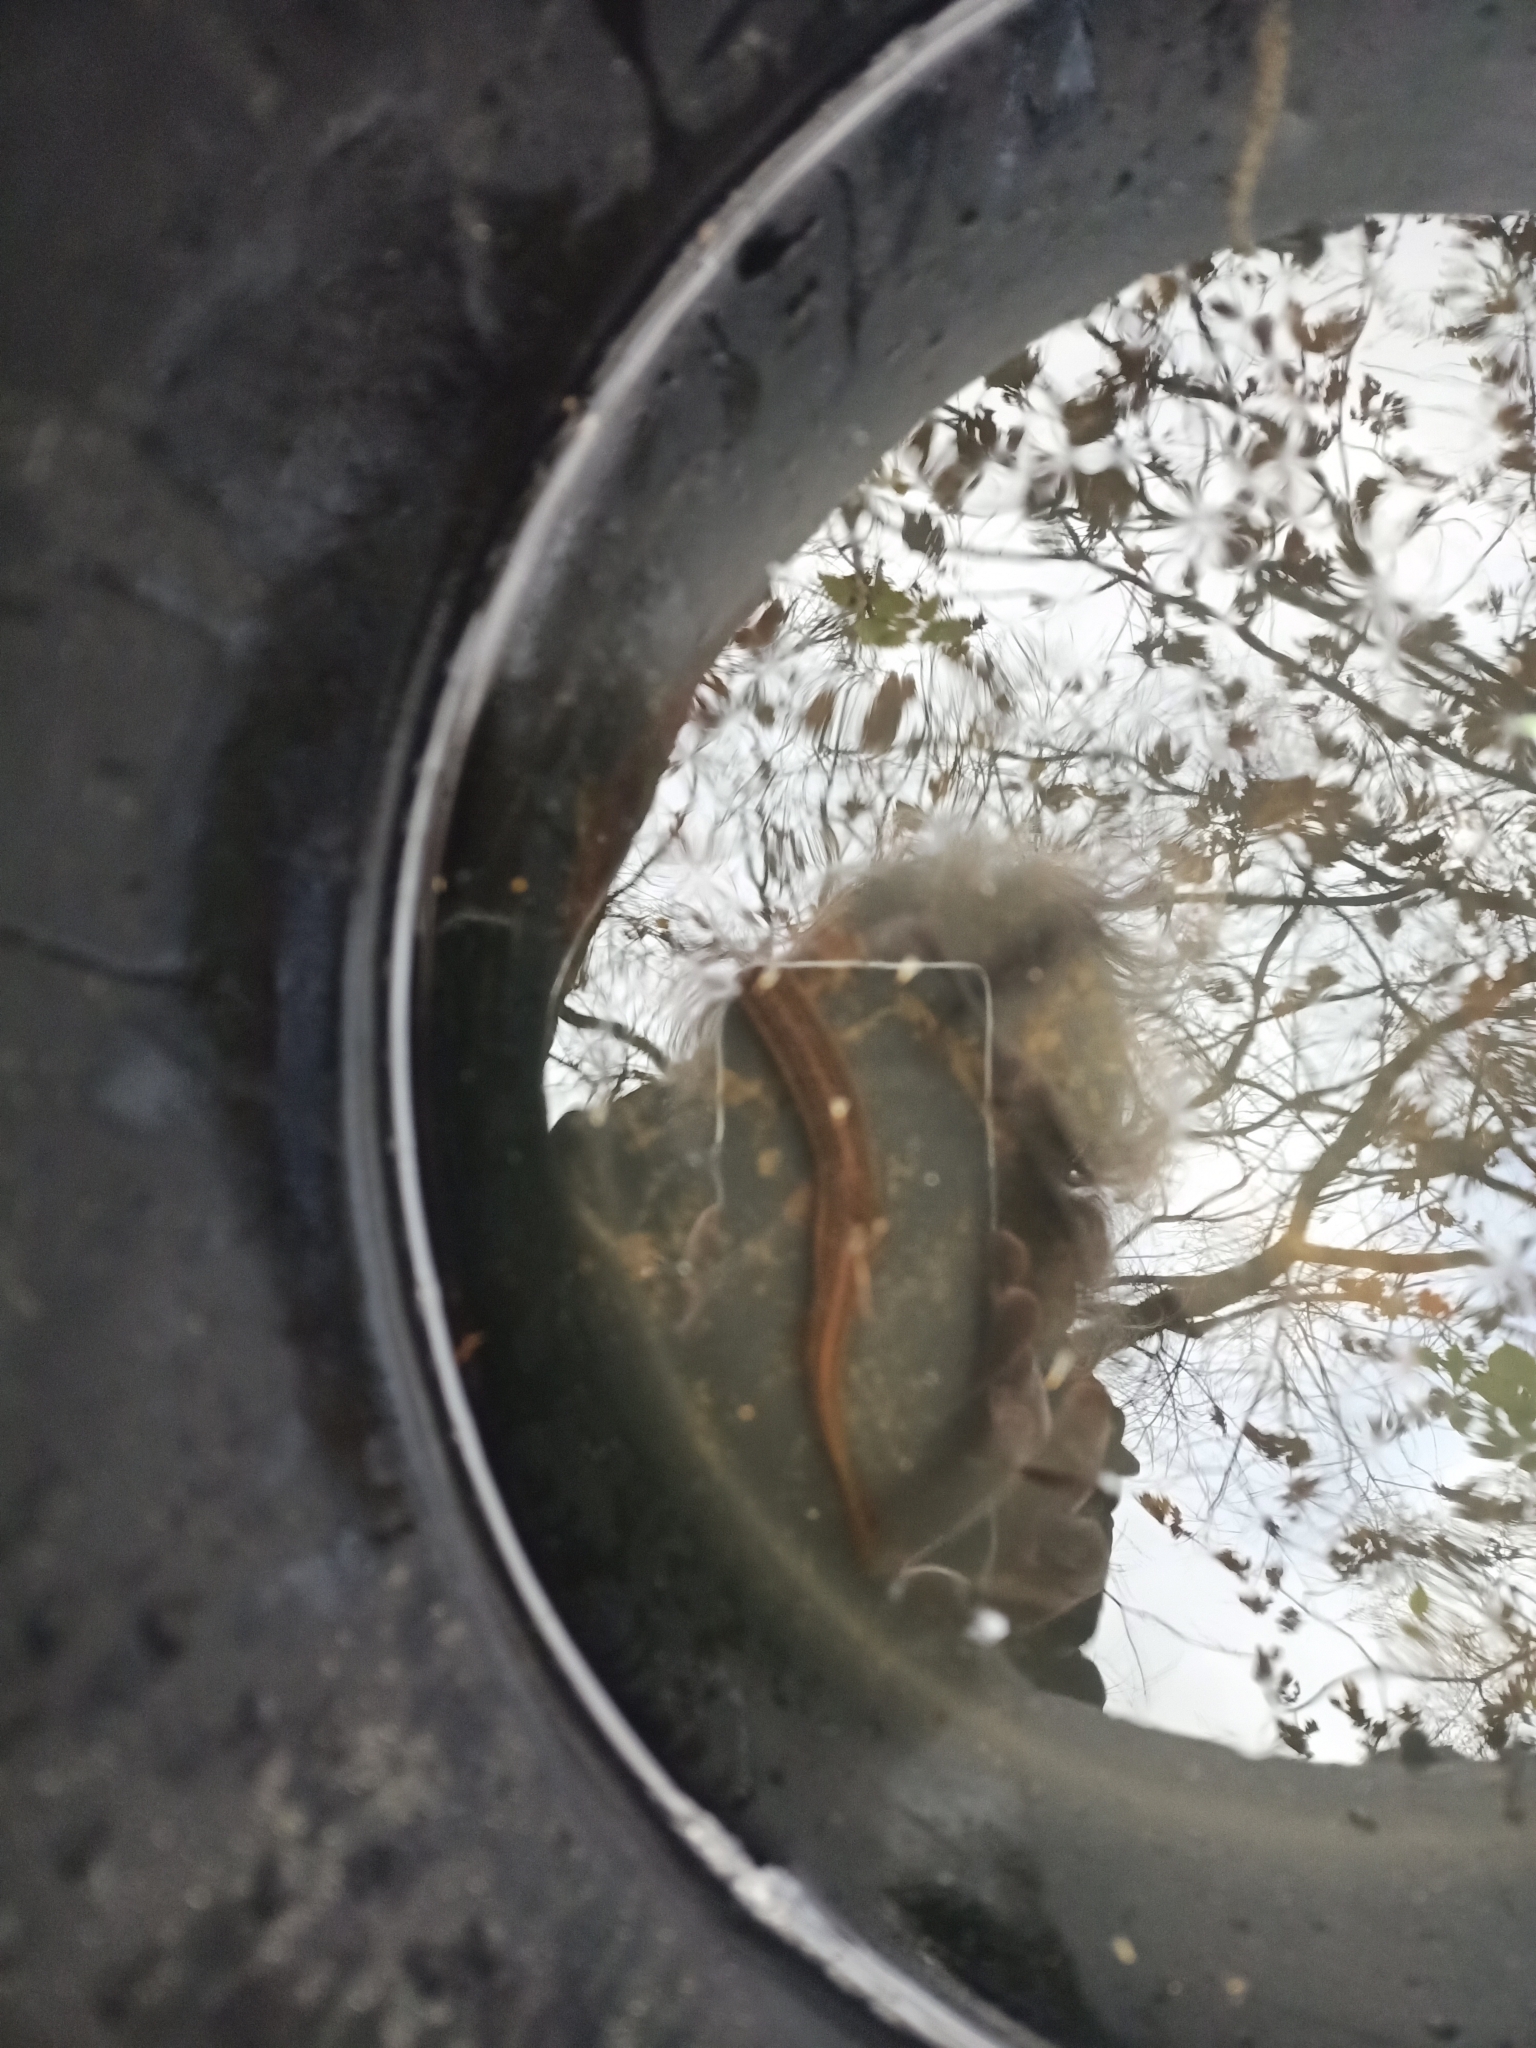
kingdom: Animalia
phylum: Chordata
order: Cypriniformes
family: Cobitidae
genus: Misgurnus
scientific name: Misgurnus fossilis
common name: Weatherfish
